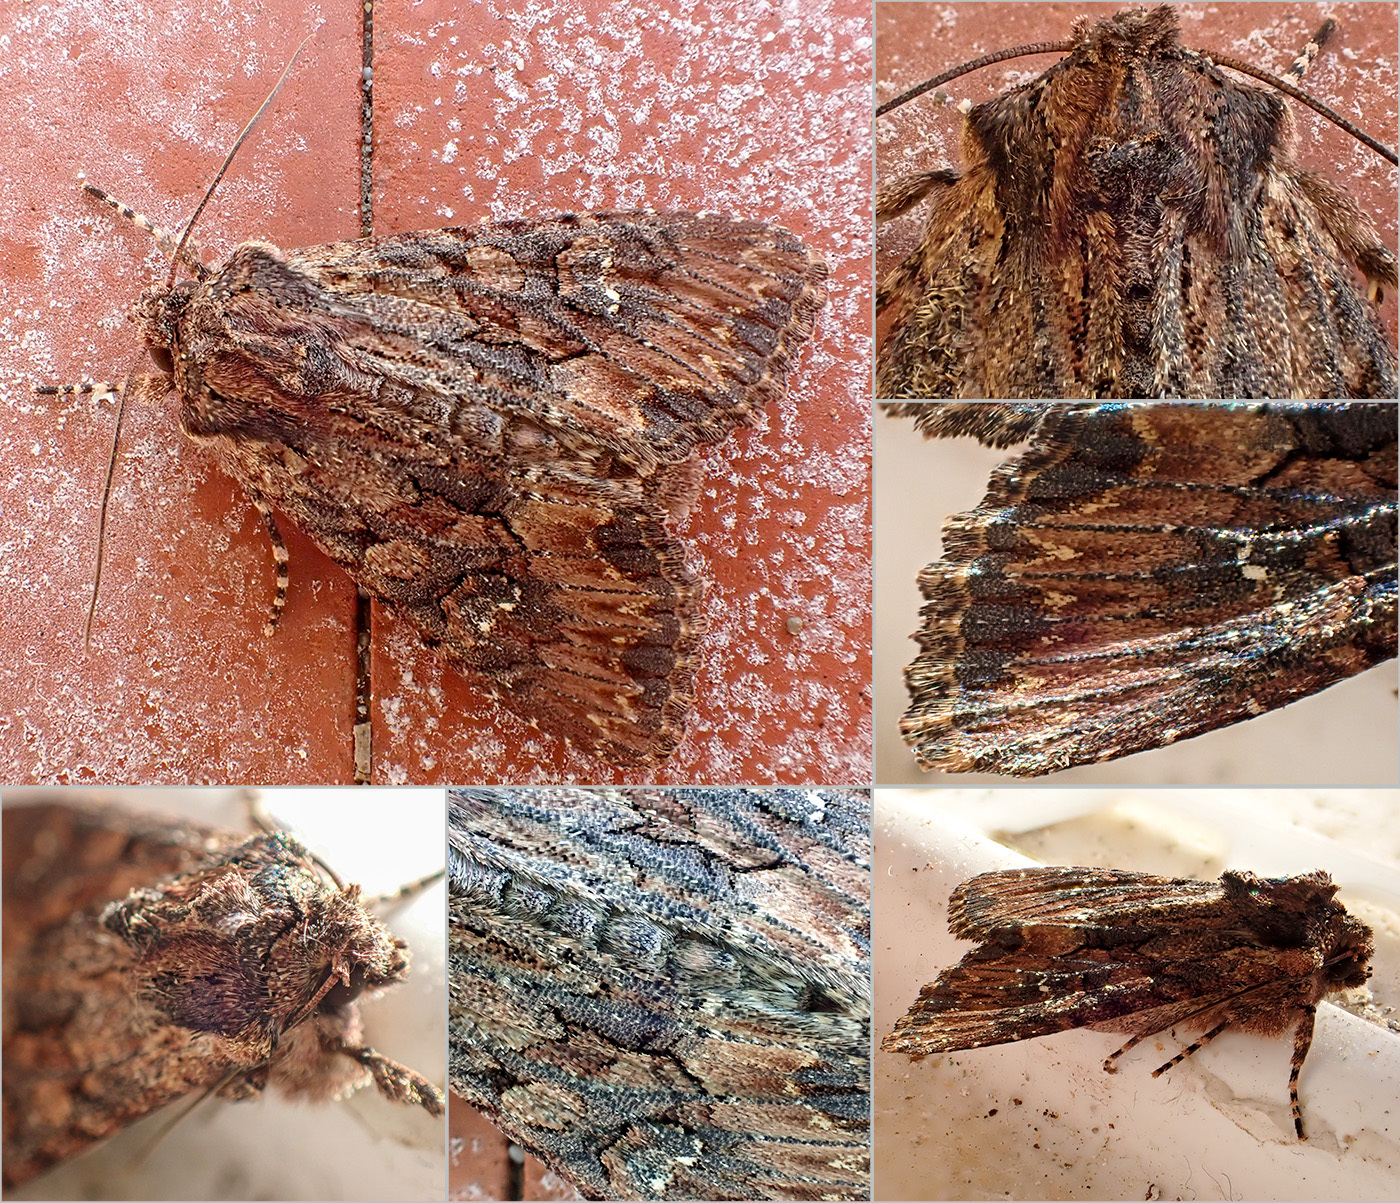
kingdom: Animalia
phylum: Arthropoda
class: Insecta
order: Lepidoptera
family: Noctuidae
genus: Mniotype
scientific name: Mniotype solieri
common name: Bedrule brocade
